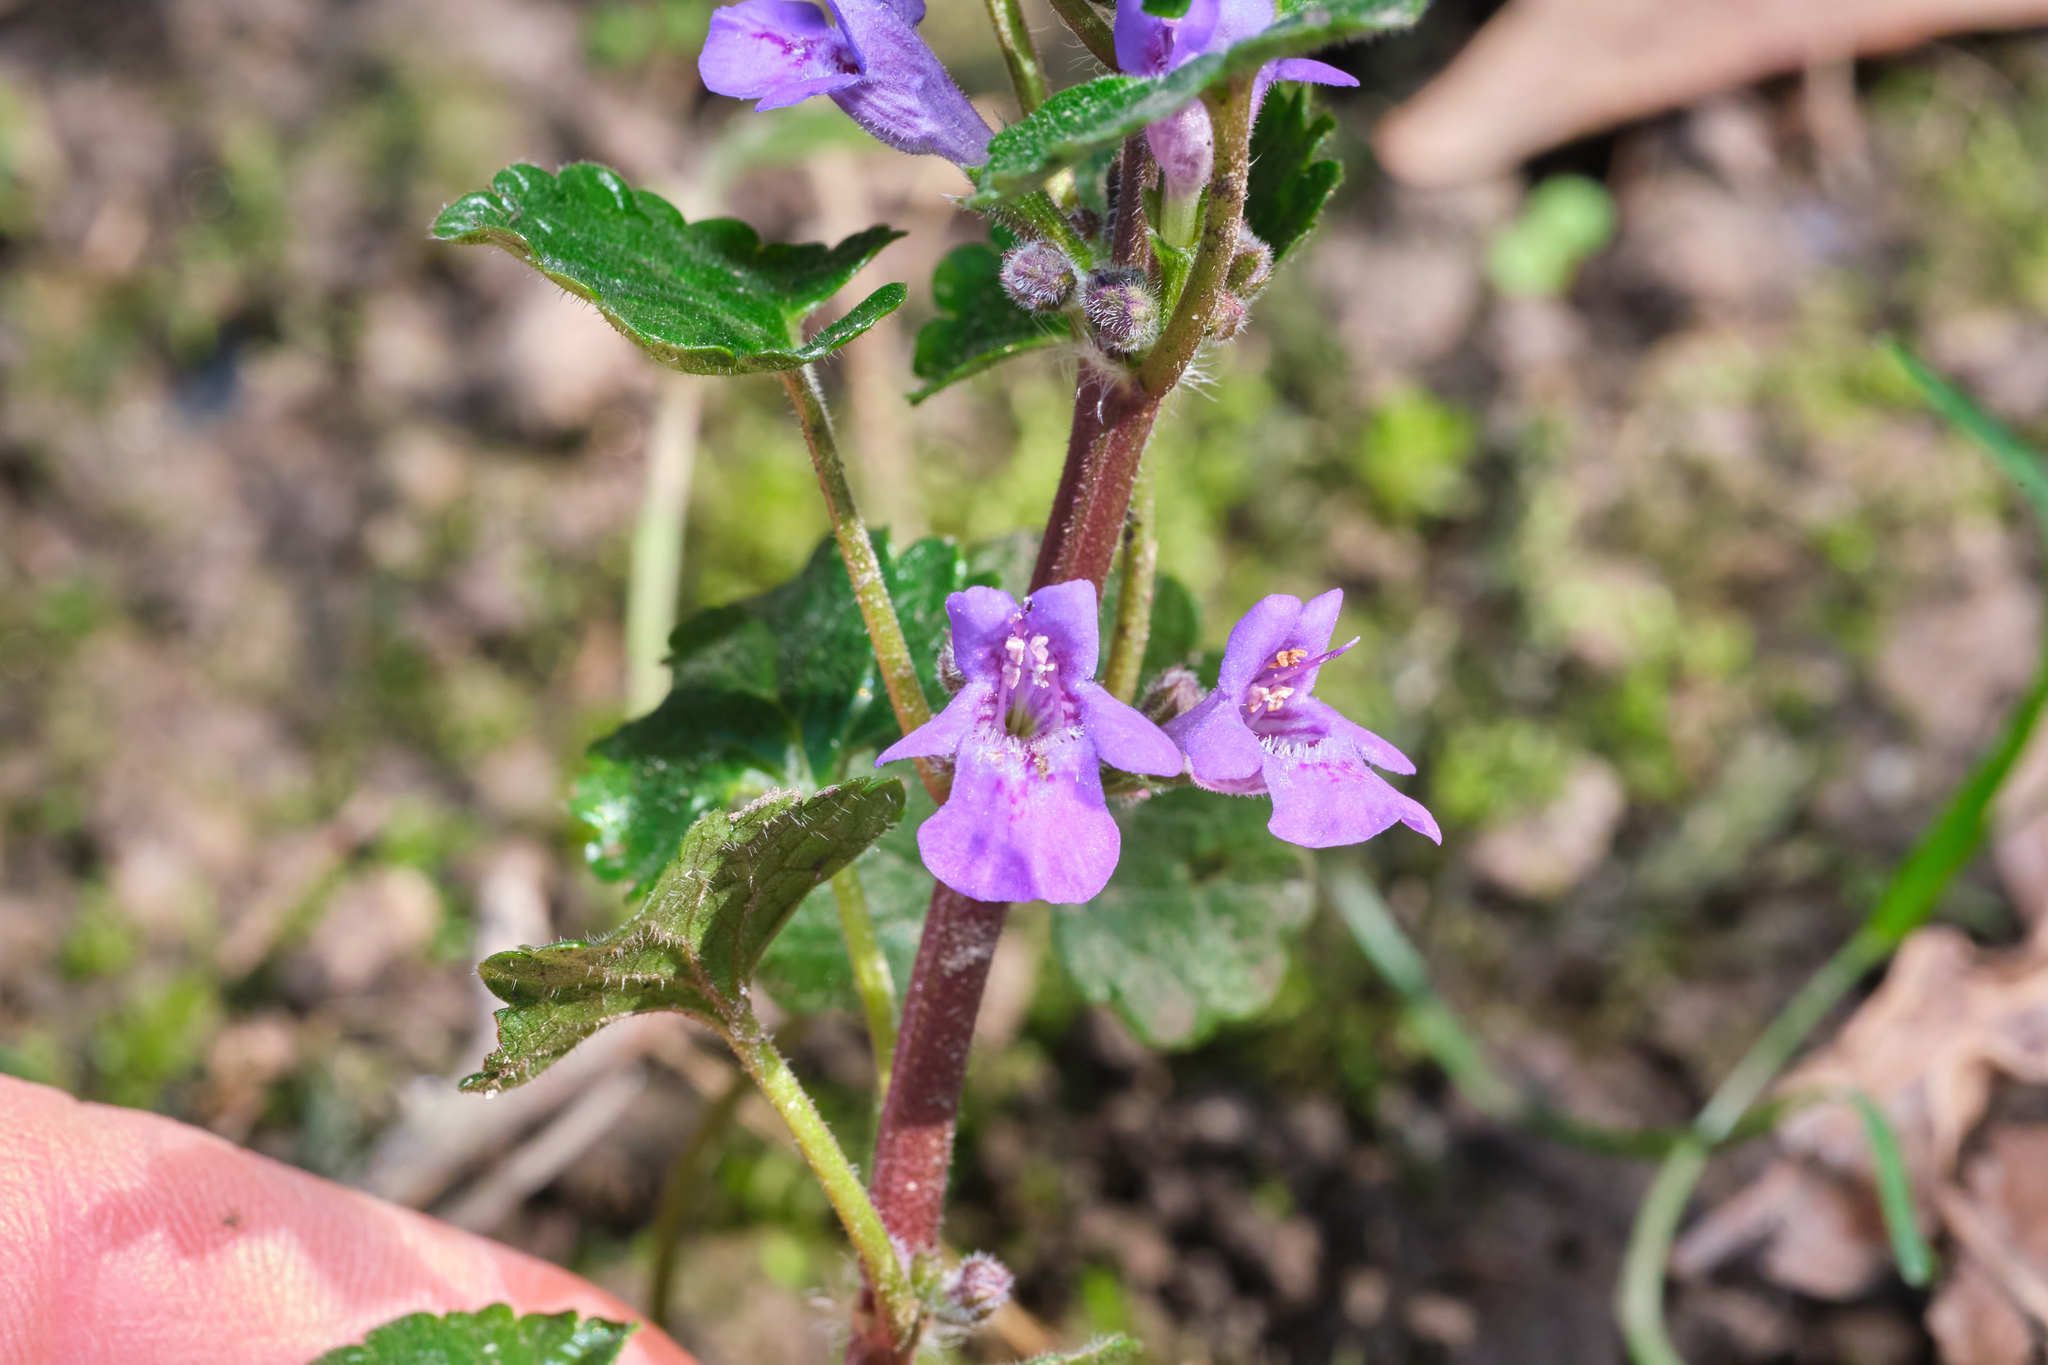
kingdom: Plantae
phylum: Tracheophyta
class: Magnoliopsida
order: Lamiales
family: Lamiaceae
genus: Glechoma
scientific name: Glechoma hederacea
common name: Ground ivy
